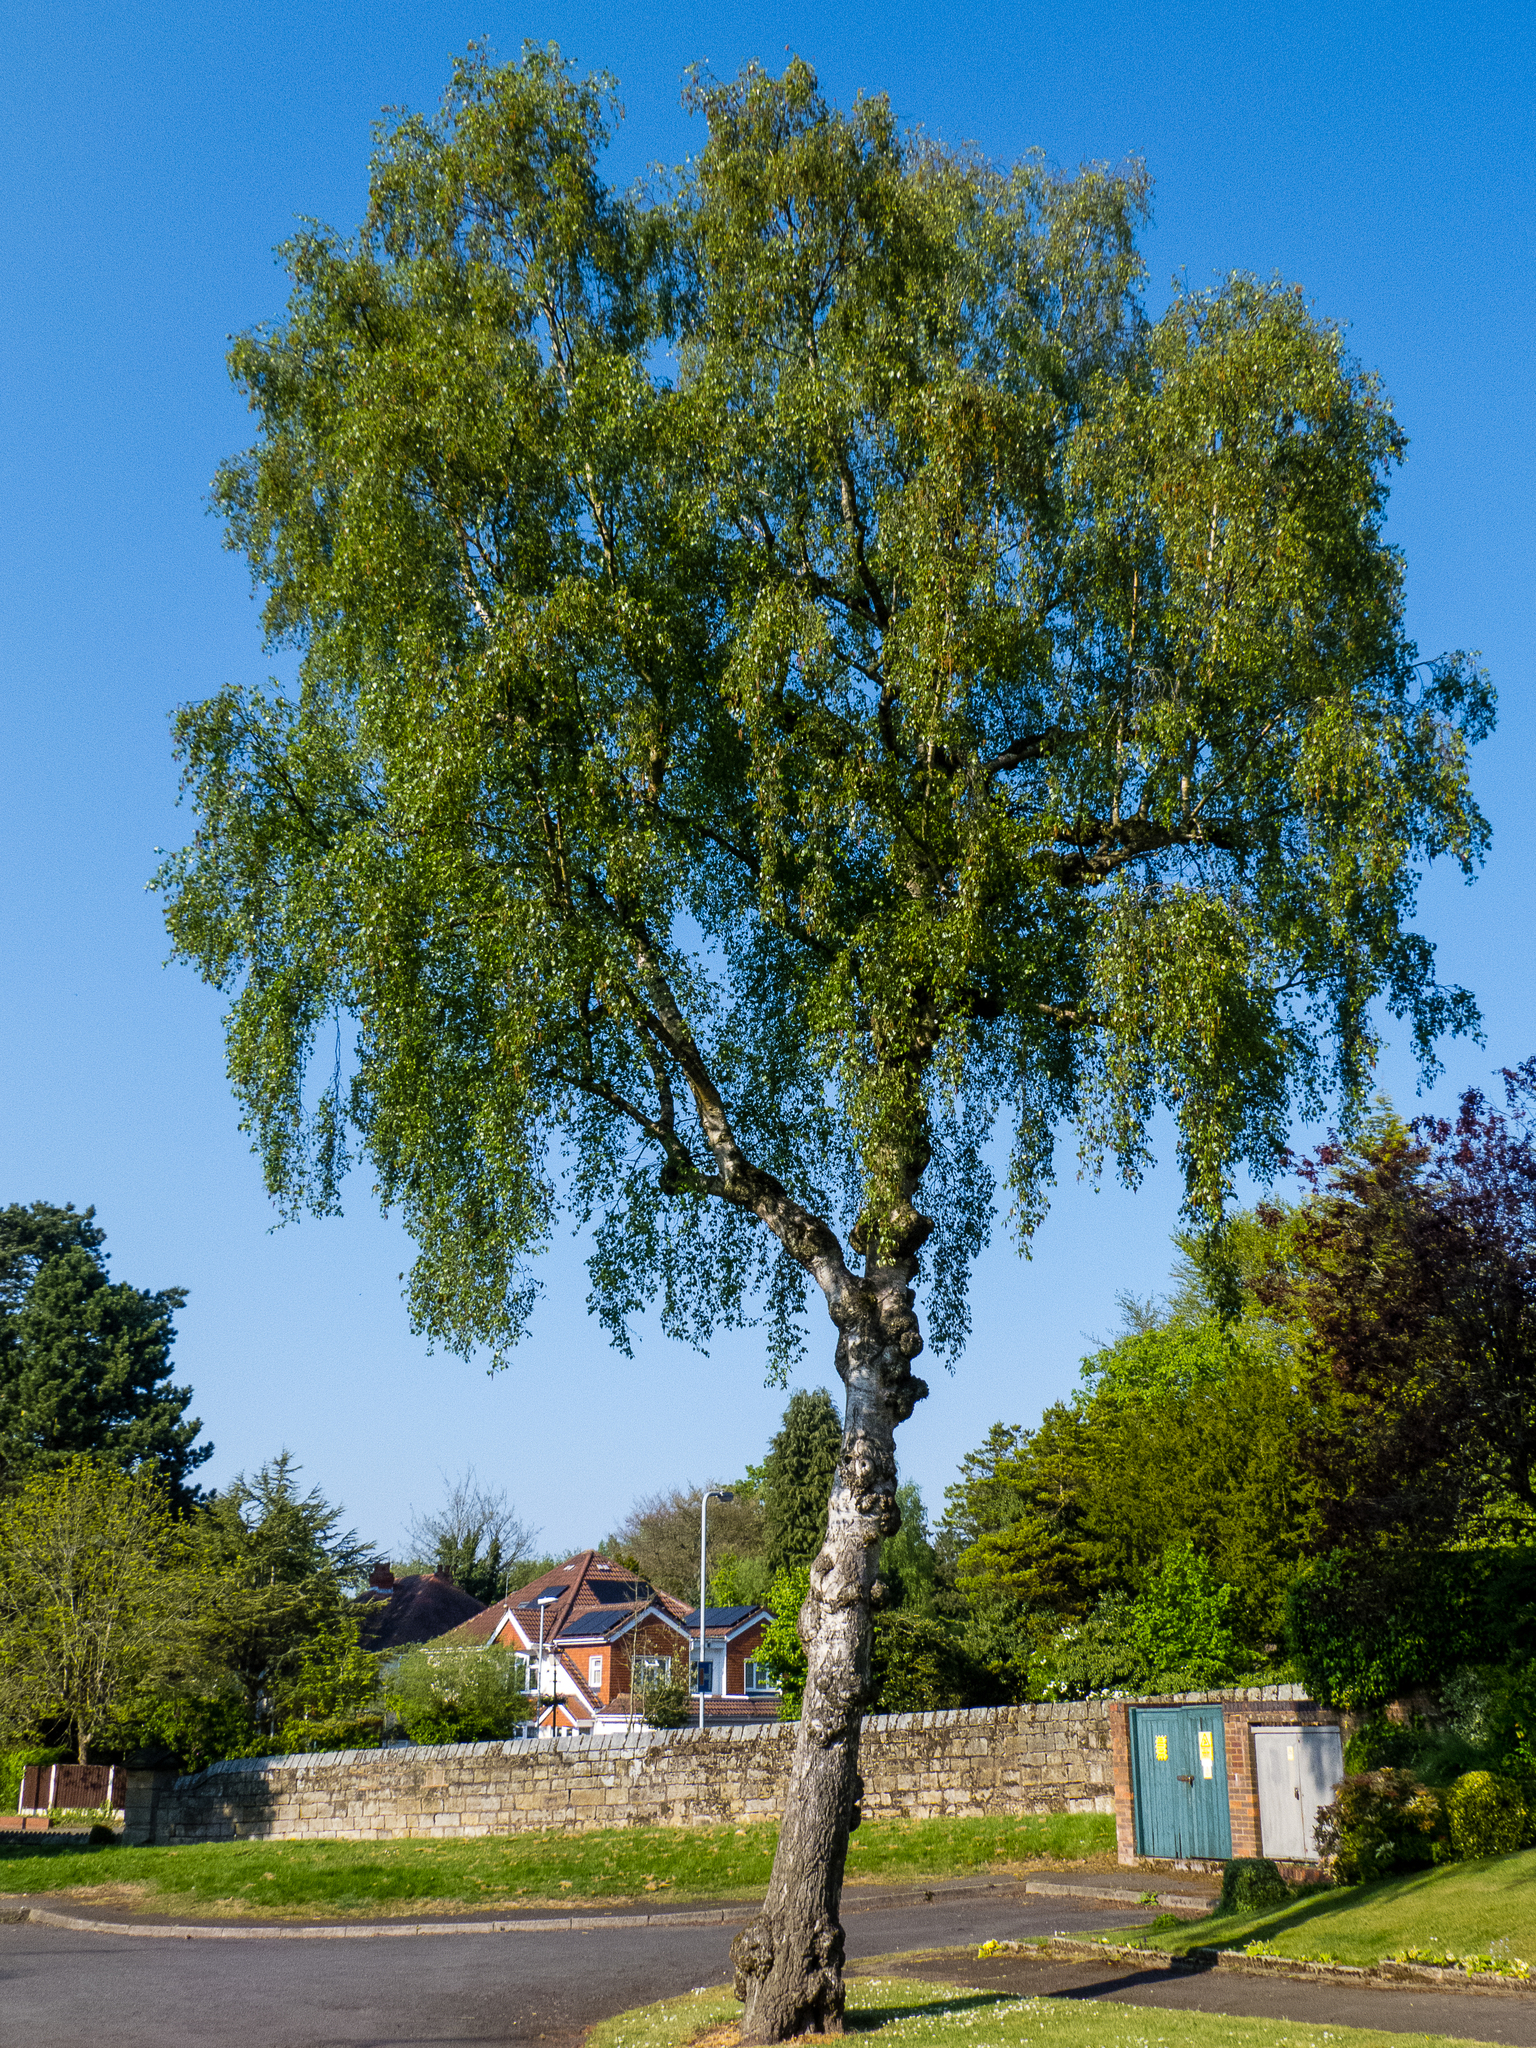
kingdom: Plantae
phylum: Tracheophyta
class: Magnoliopsida
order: Fagales
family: Betulaceae
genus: Betula
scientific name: Betula pendula
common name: Silver birch
